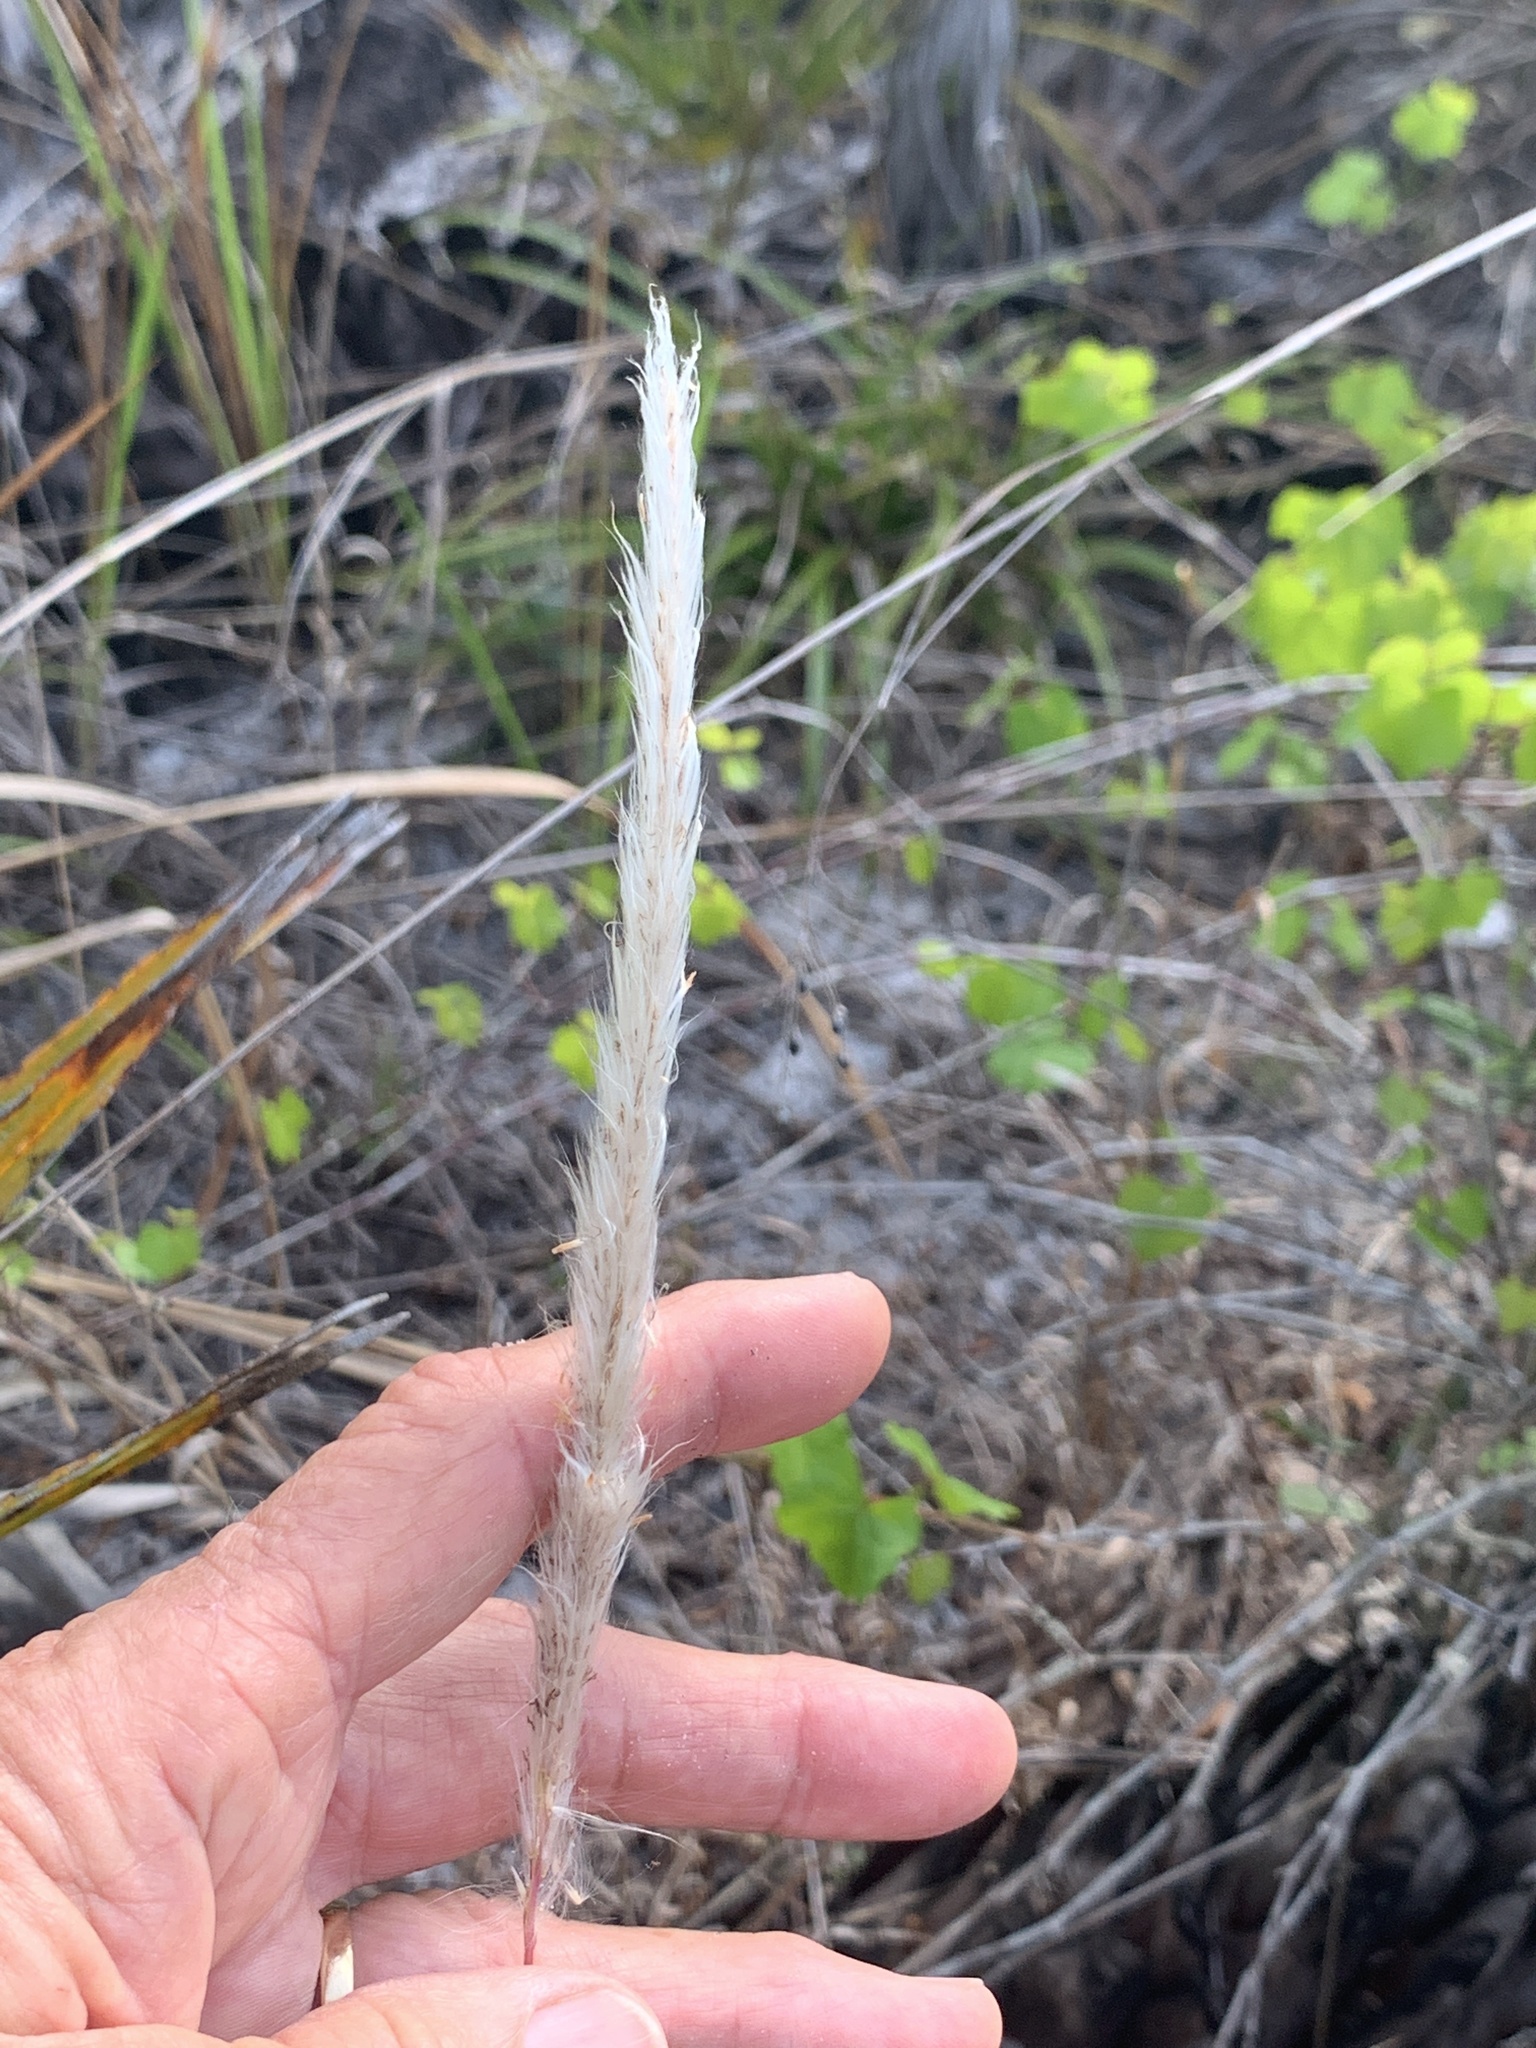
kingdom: Plantae
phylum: Tracheophyta
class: Liliopsida
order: Poales
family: Poaceae
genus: Imperata
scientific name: Imperata cylindrica
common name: Cogongrass
